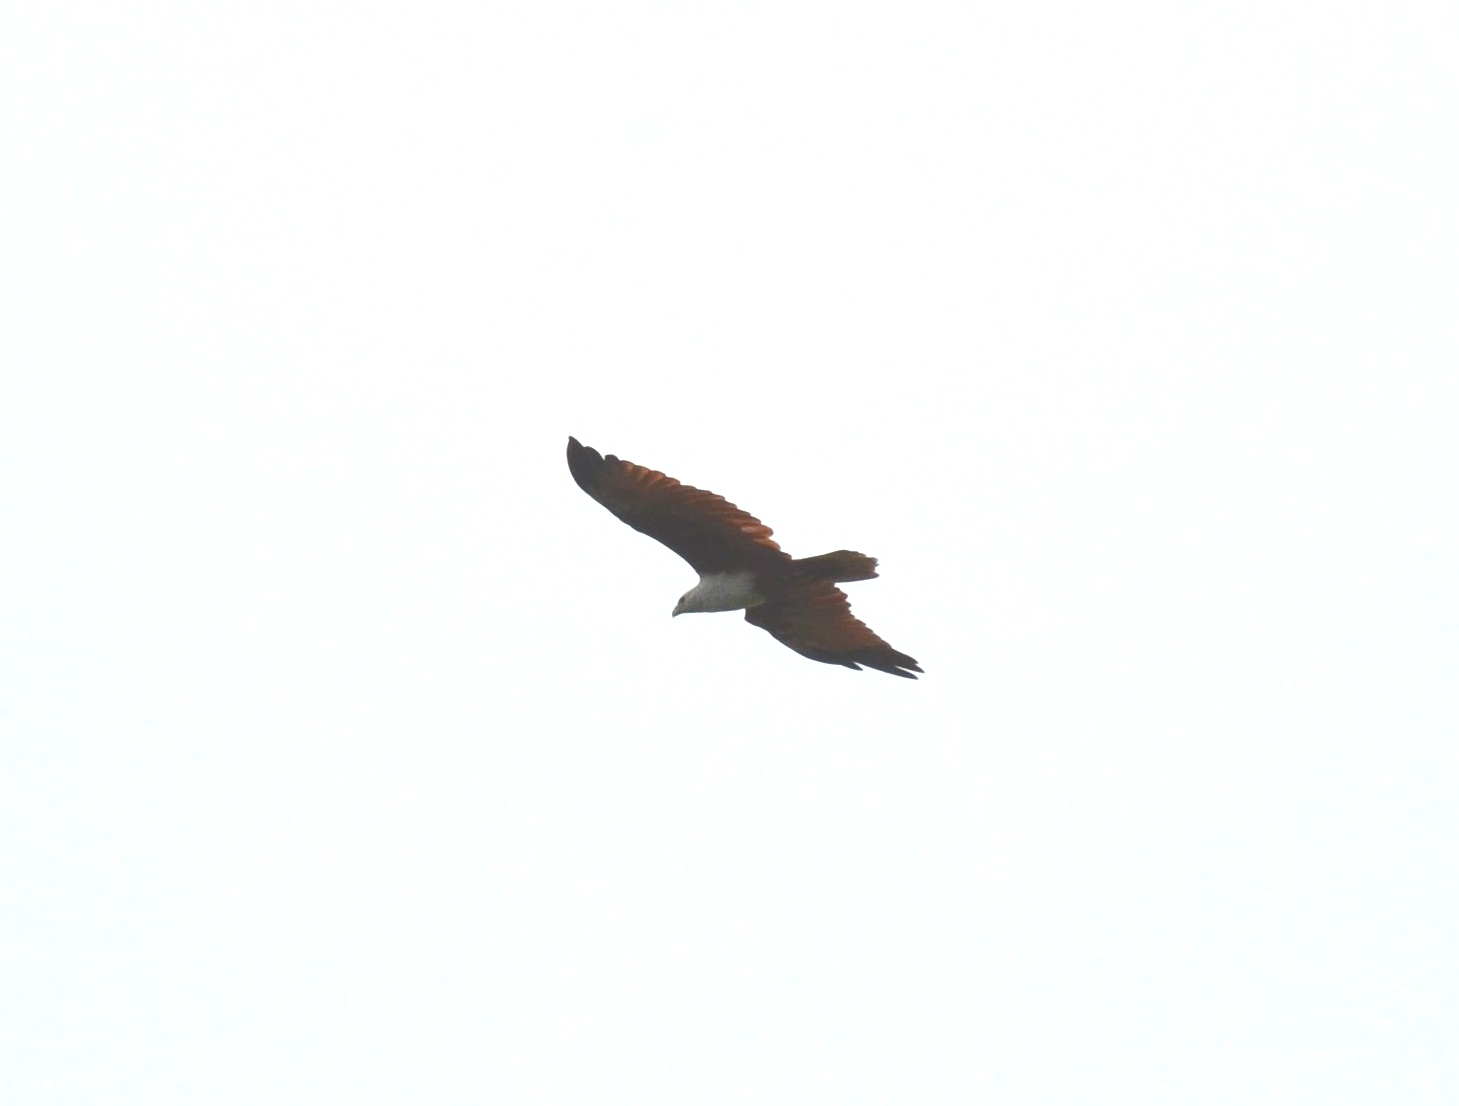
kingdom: Animalia
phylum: Chordata
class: Aves
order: Accipitriformes
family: Accipitridae
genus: Haliastur
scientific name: Haliastur indus
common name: Brahminy kite
